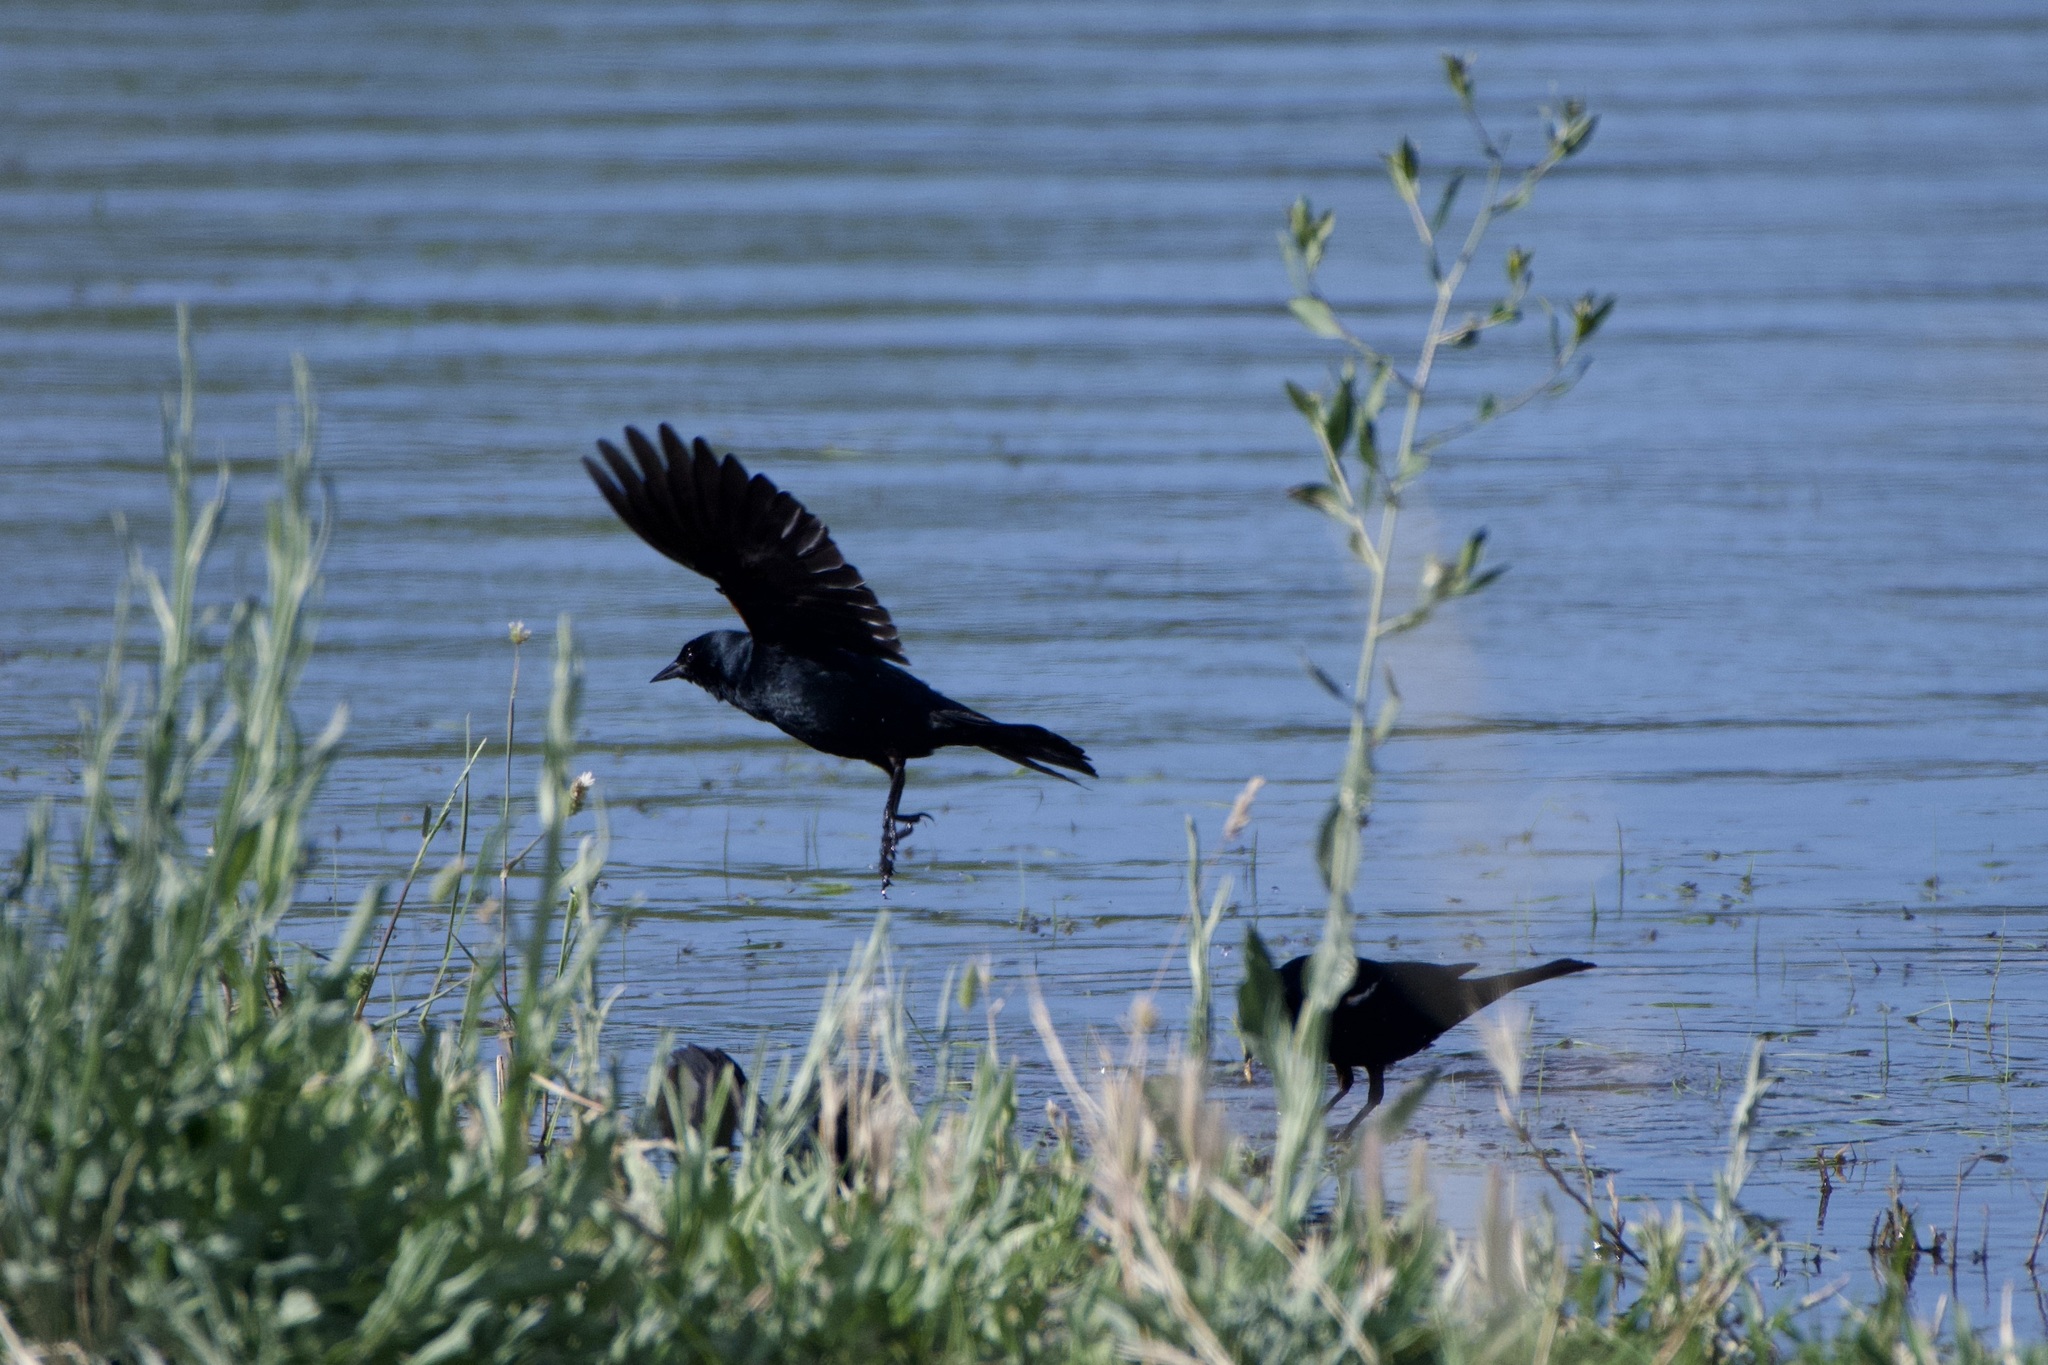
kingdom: Animalia
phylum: Chordata
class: Aves
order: Passeriformes
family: Icteridae
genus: Agelaius
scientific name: Agelaius tricolor
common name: Tricolored blackbird
